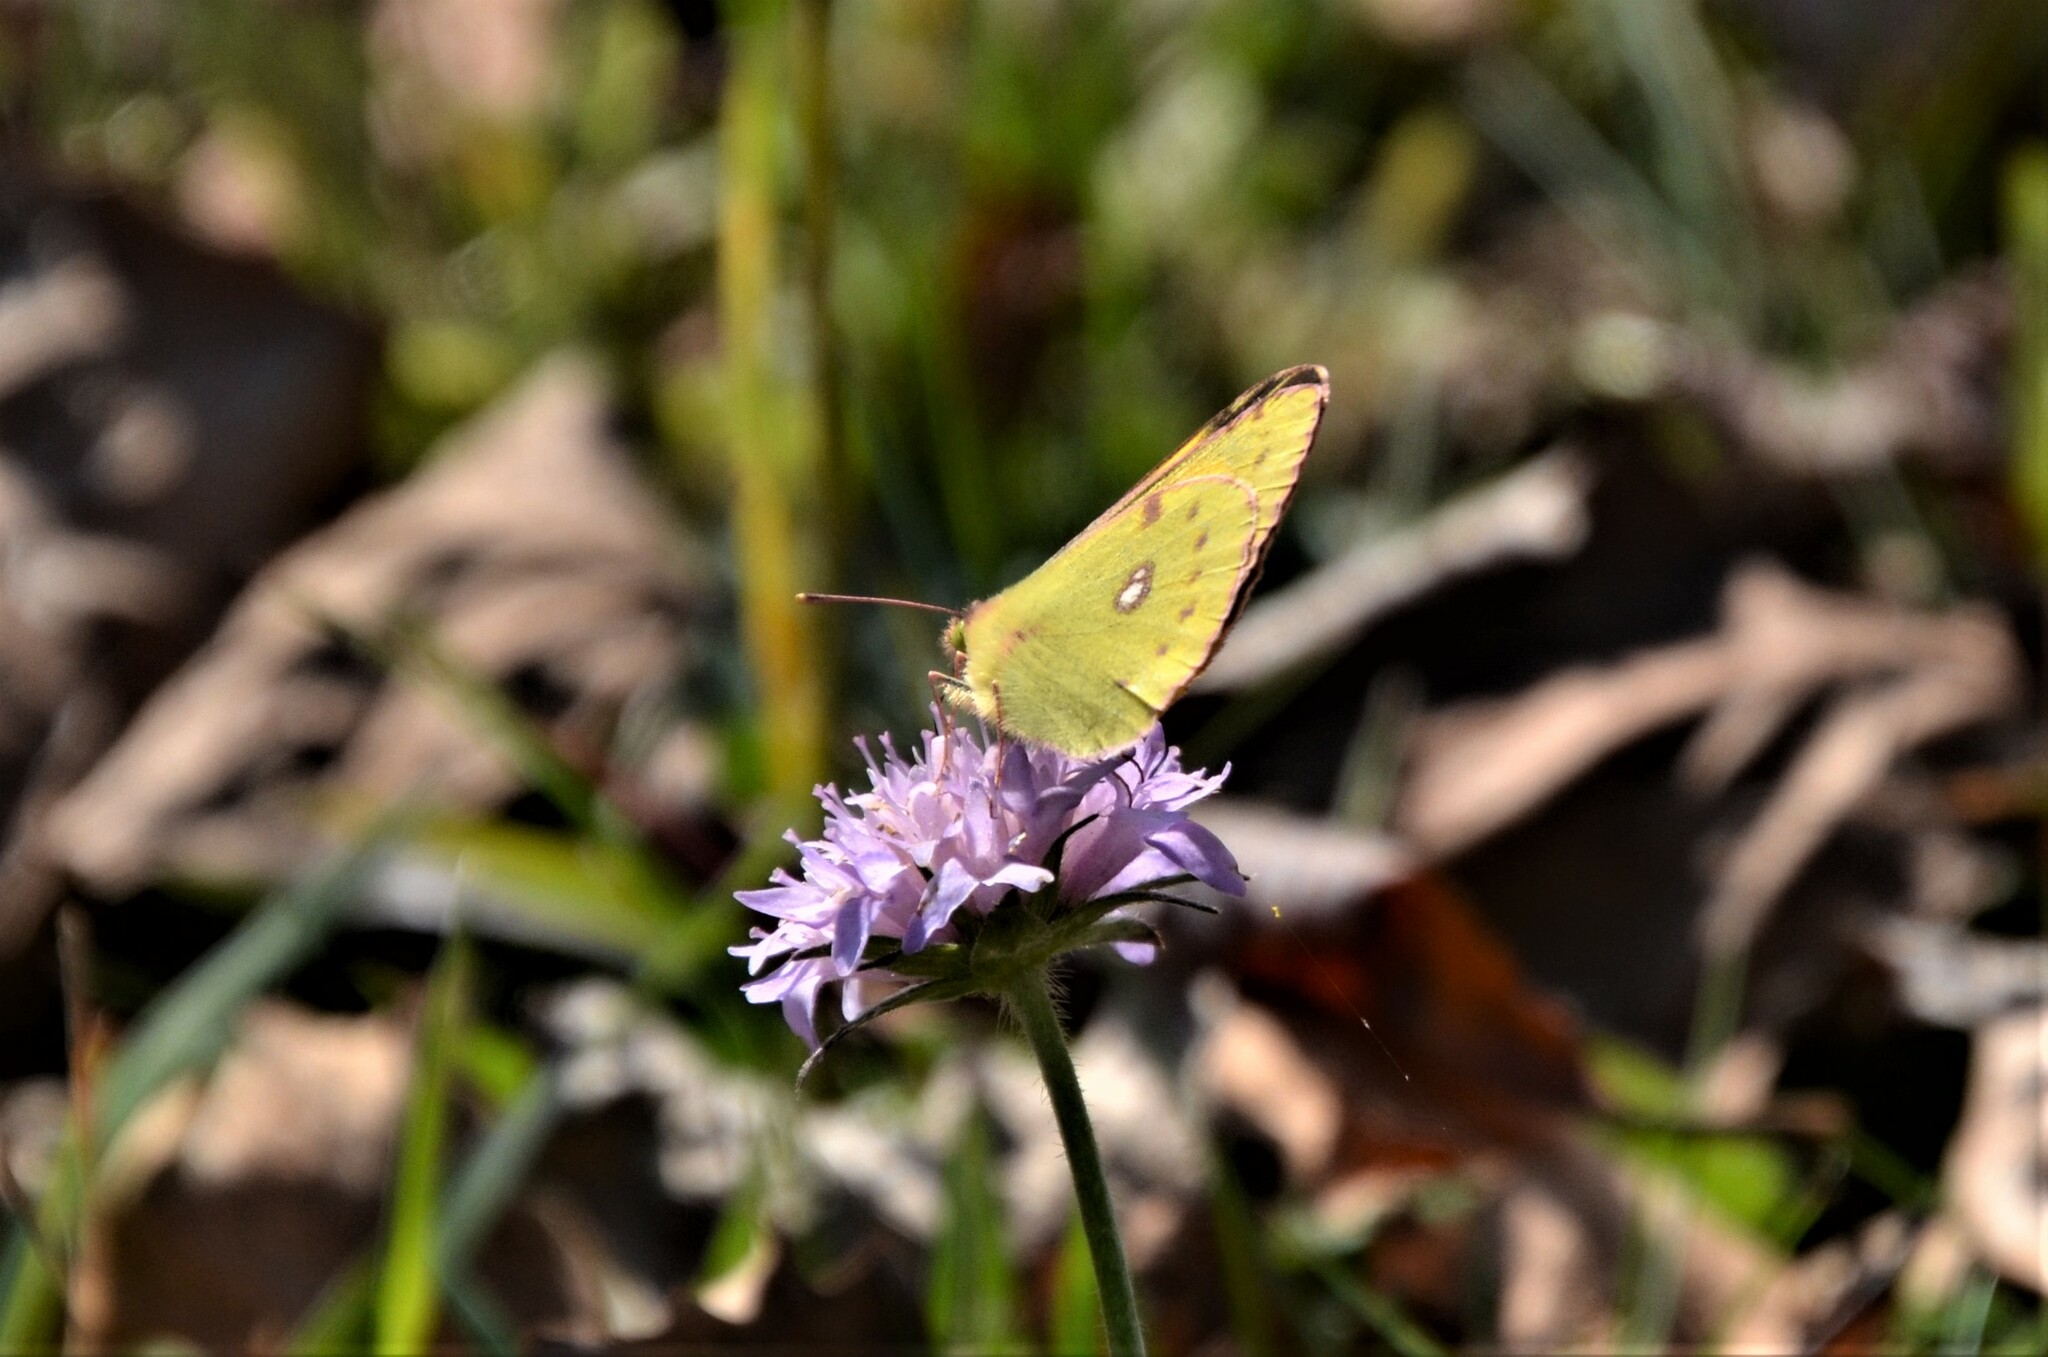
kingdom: Animalia
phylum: Arthropoda
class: Insecta
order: Lepidoptera
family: Pieridae
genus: Colias
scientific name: Colias croceus
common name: Clouded yellow
